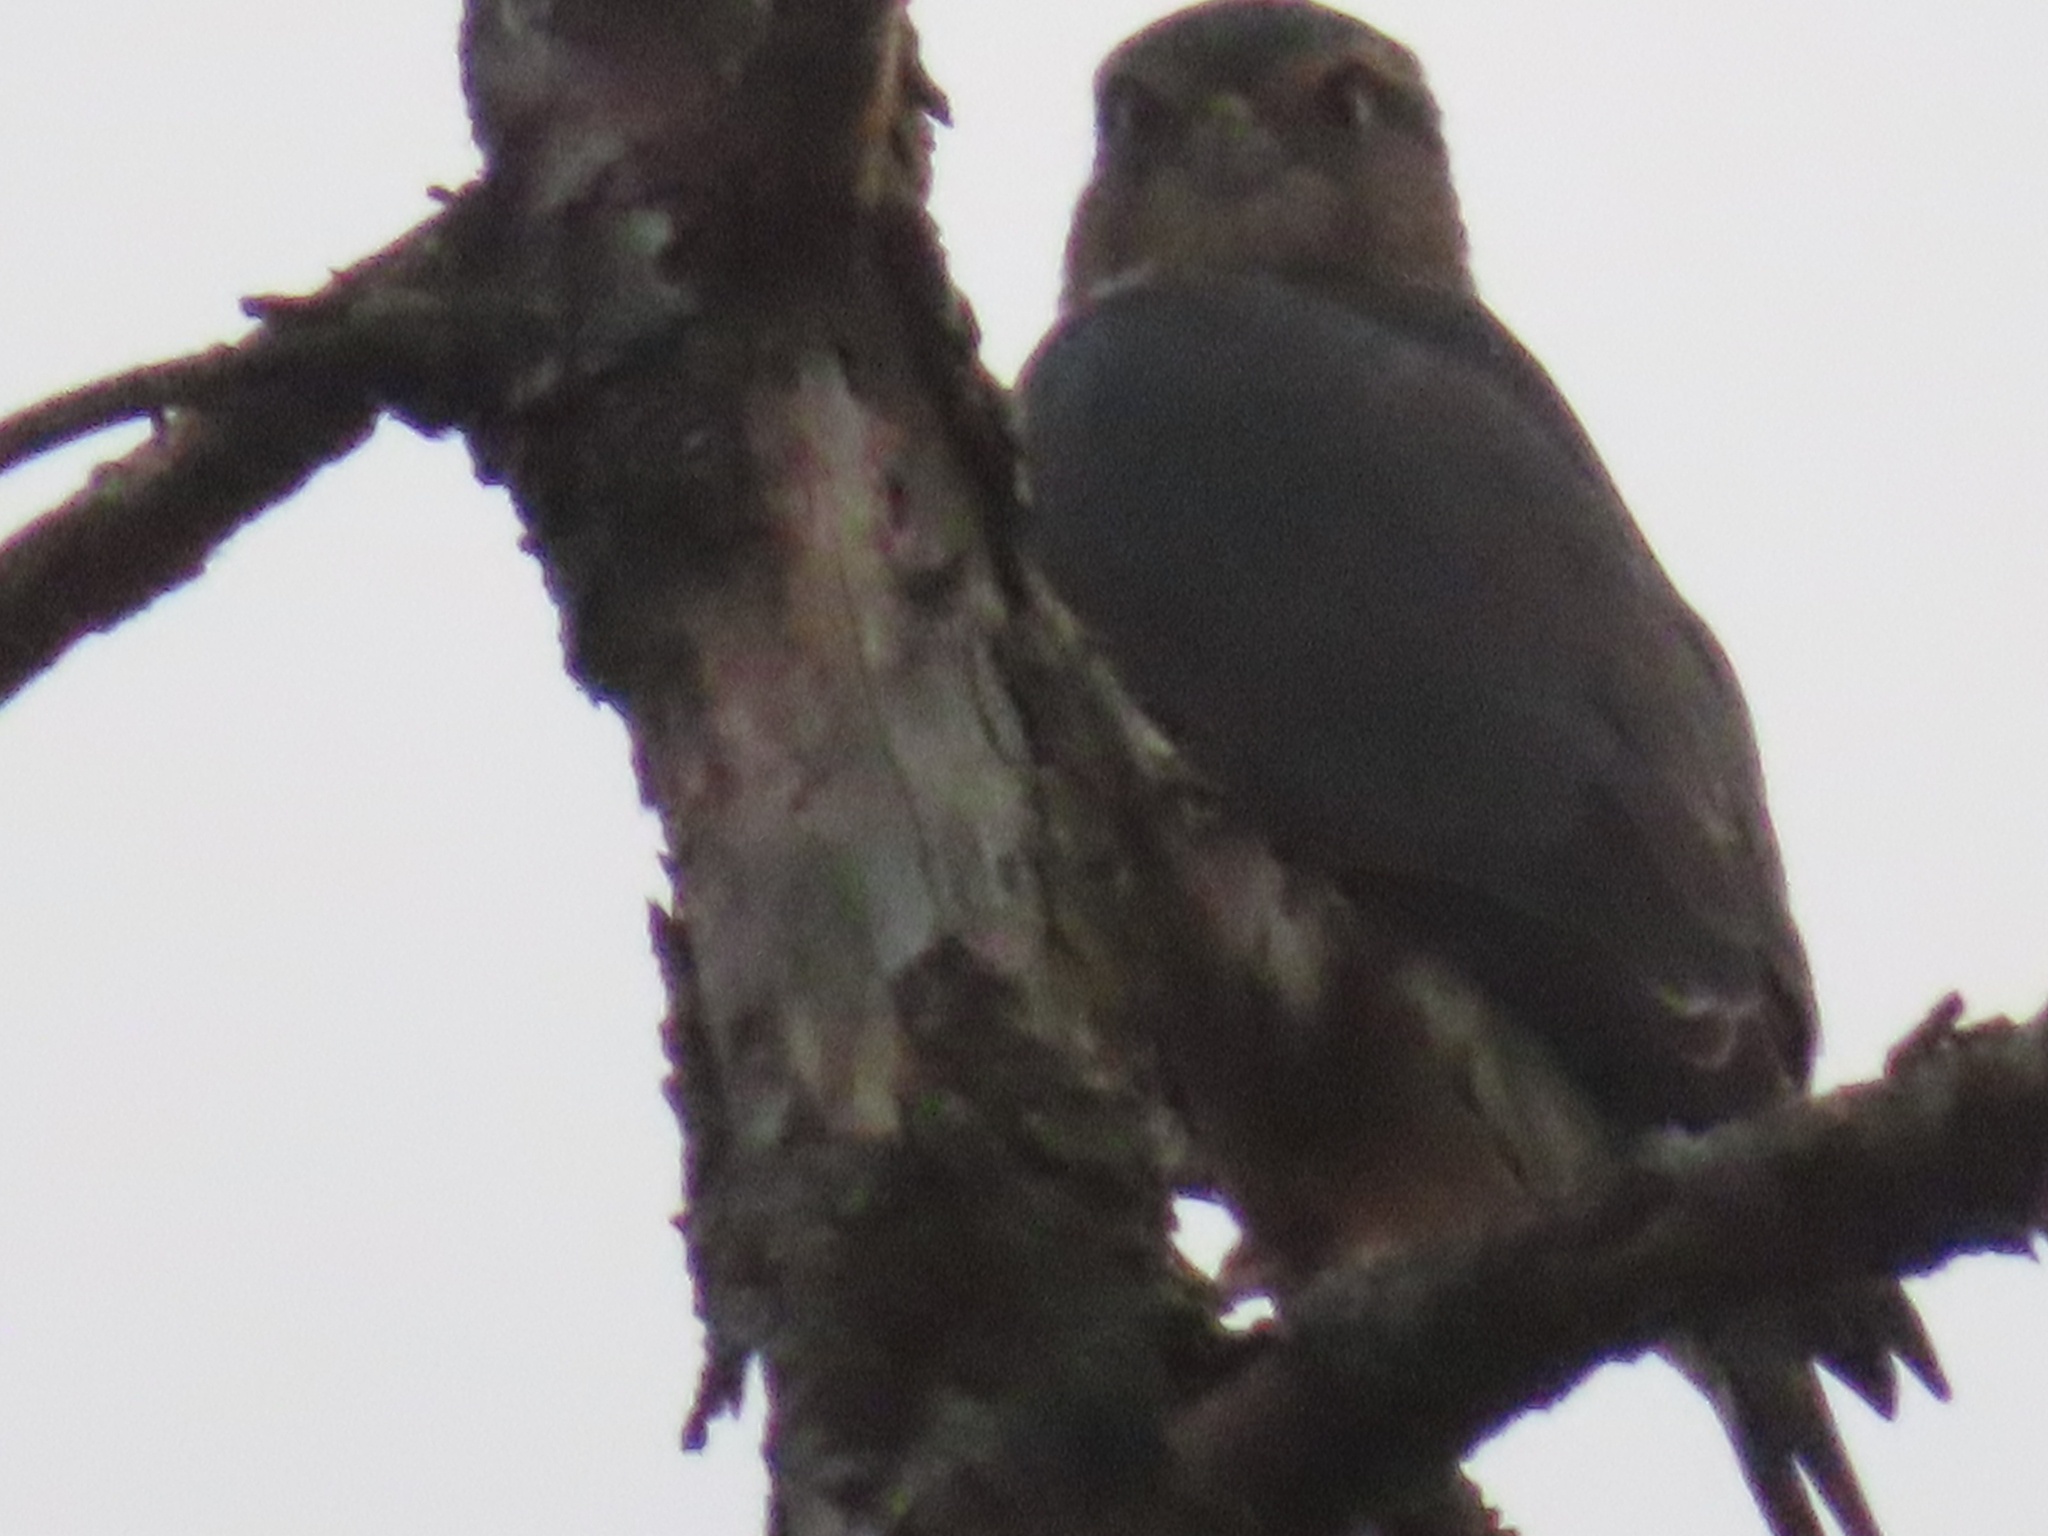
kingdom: Animalia
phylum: Chordata
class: Aves
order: Falconiformes
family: Falconidae
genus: Falco
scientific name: Falco columbarius
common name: Merlin
